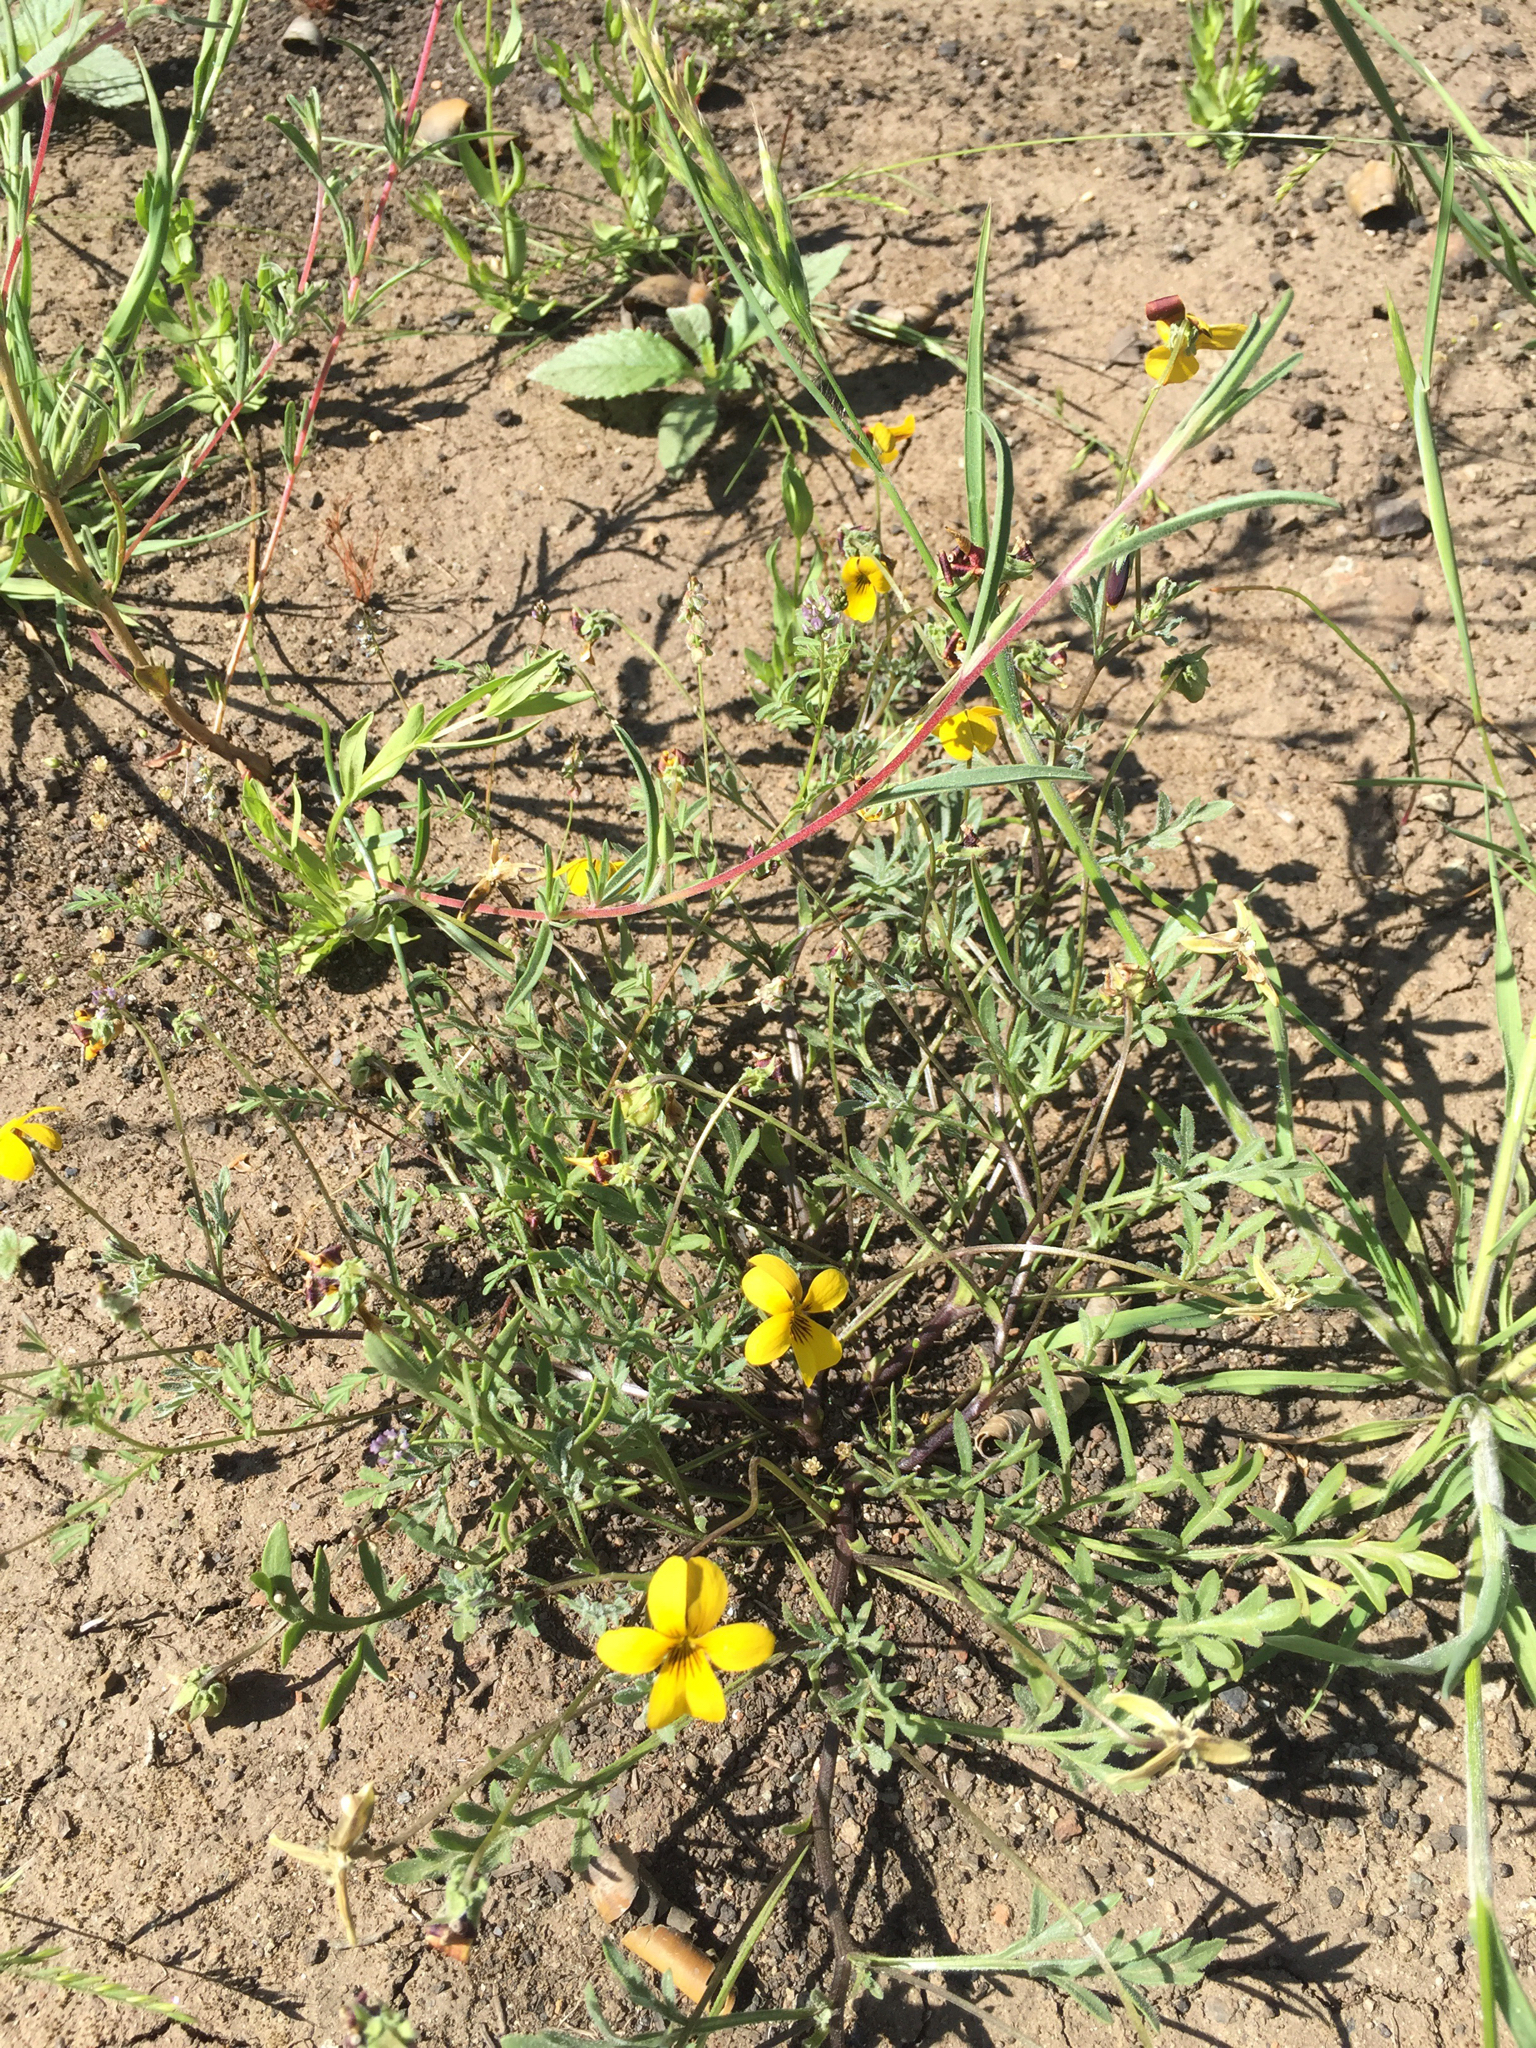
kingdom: Plantae
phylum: Tracheophyta
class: Magnoliopsida
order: Malpighiales
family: Violaceae
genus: Viola
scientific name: Viola douglasii
